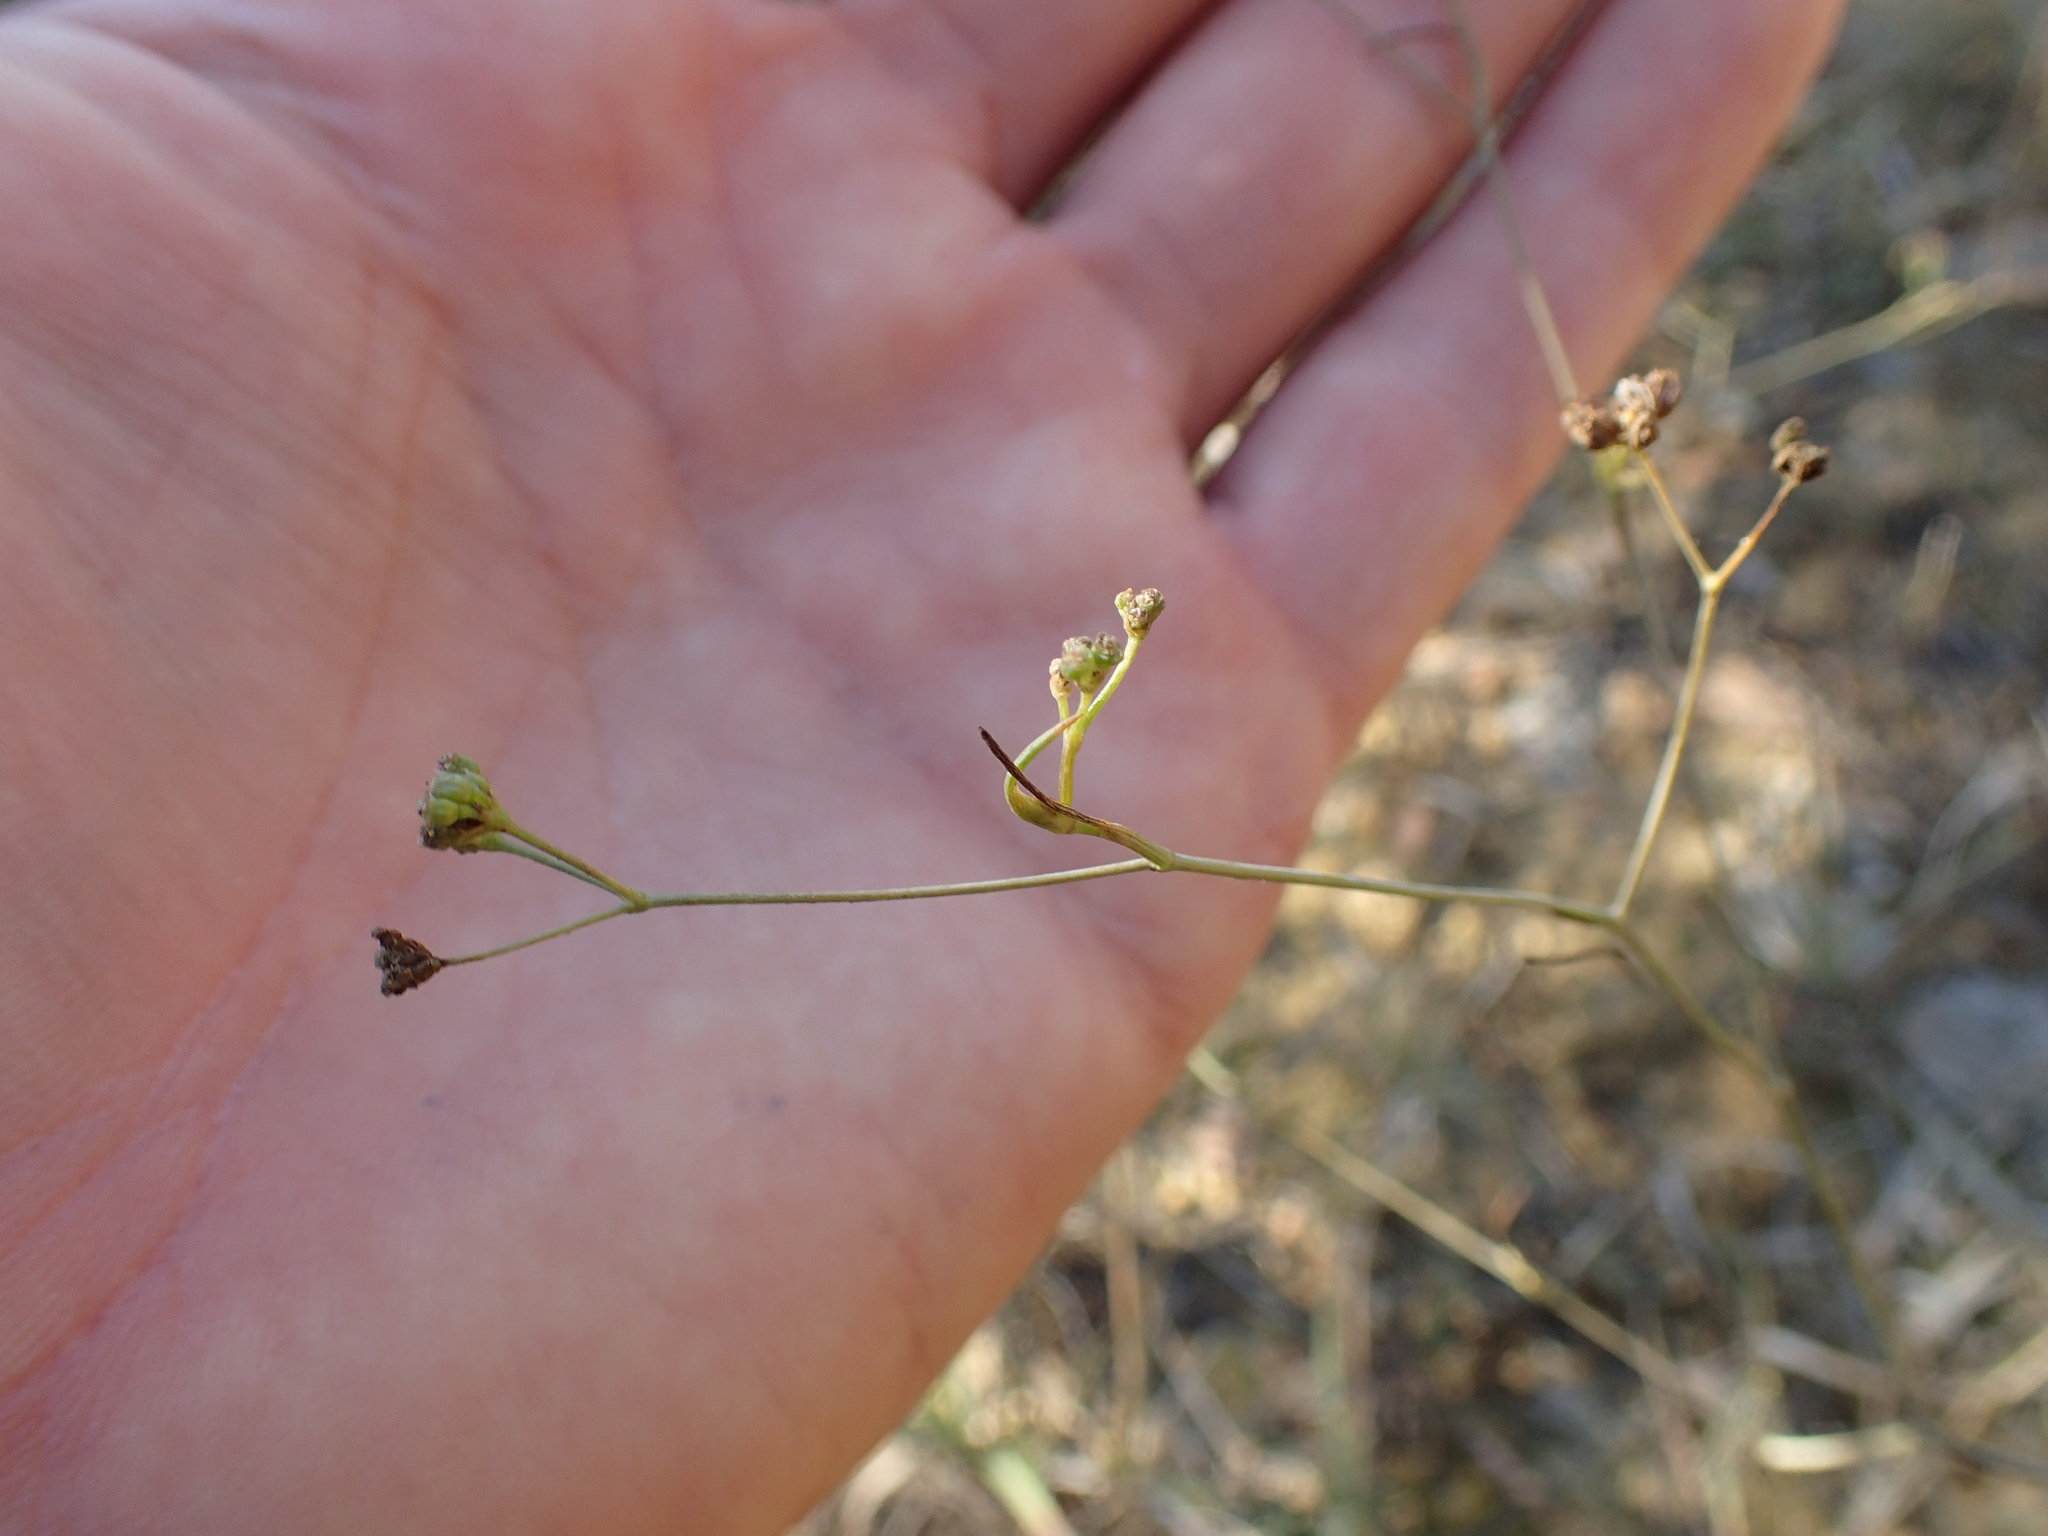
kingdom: Plantae
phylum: Tracheophyta
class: Magnoliopsida
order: Apiales
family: Apiaceae
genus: Seseli
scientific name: Seseli longifolium
